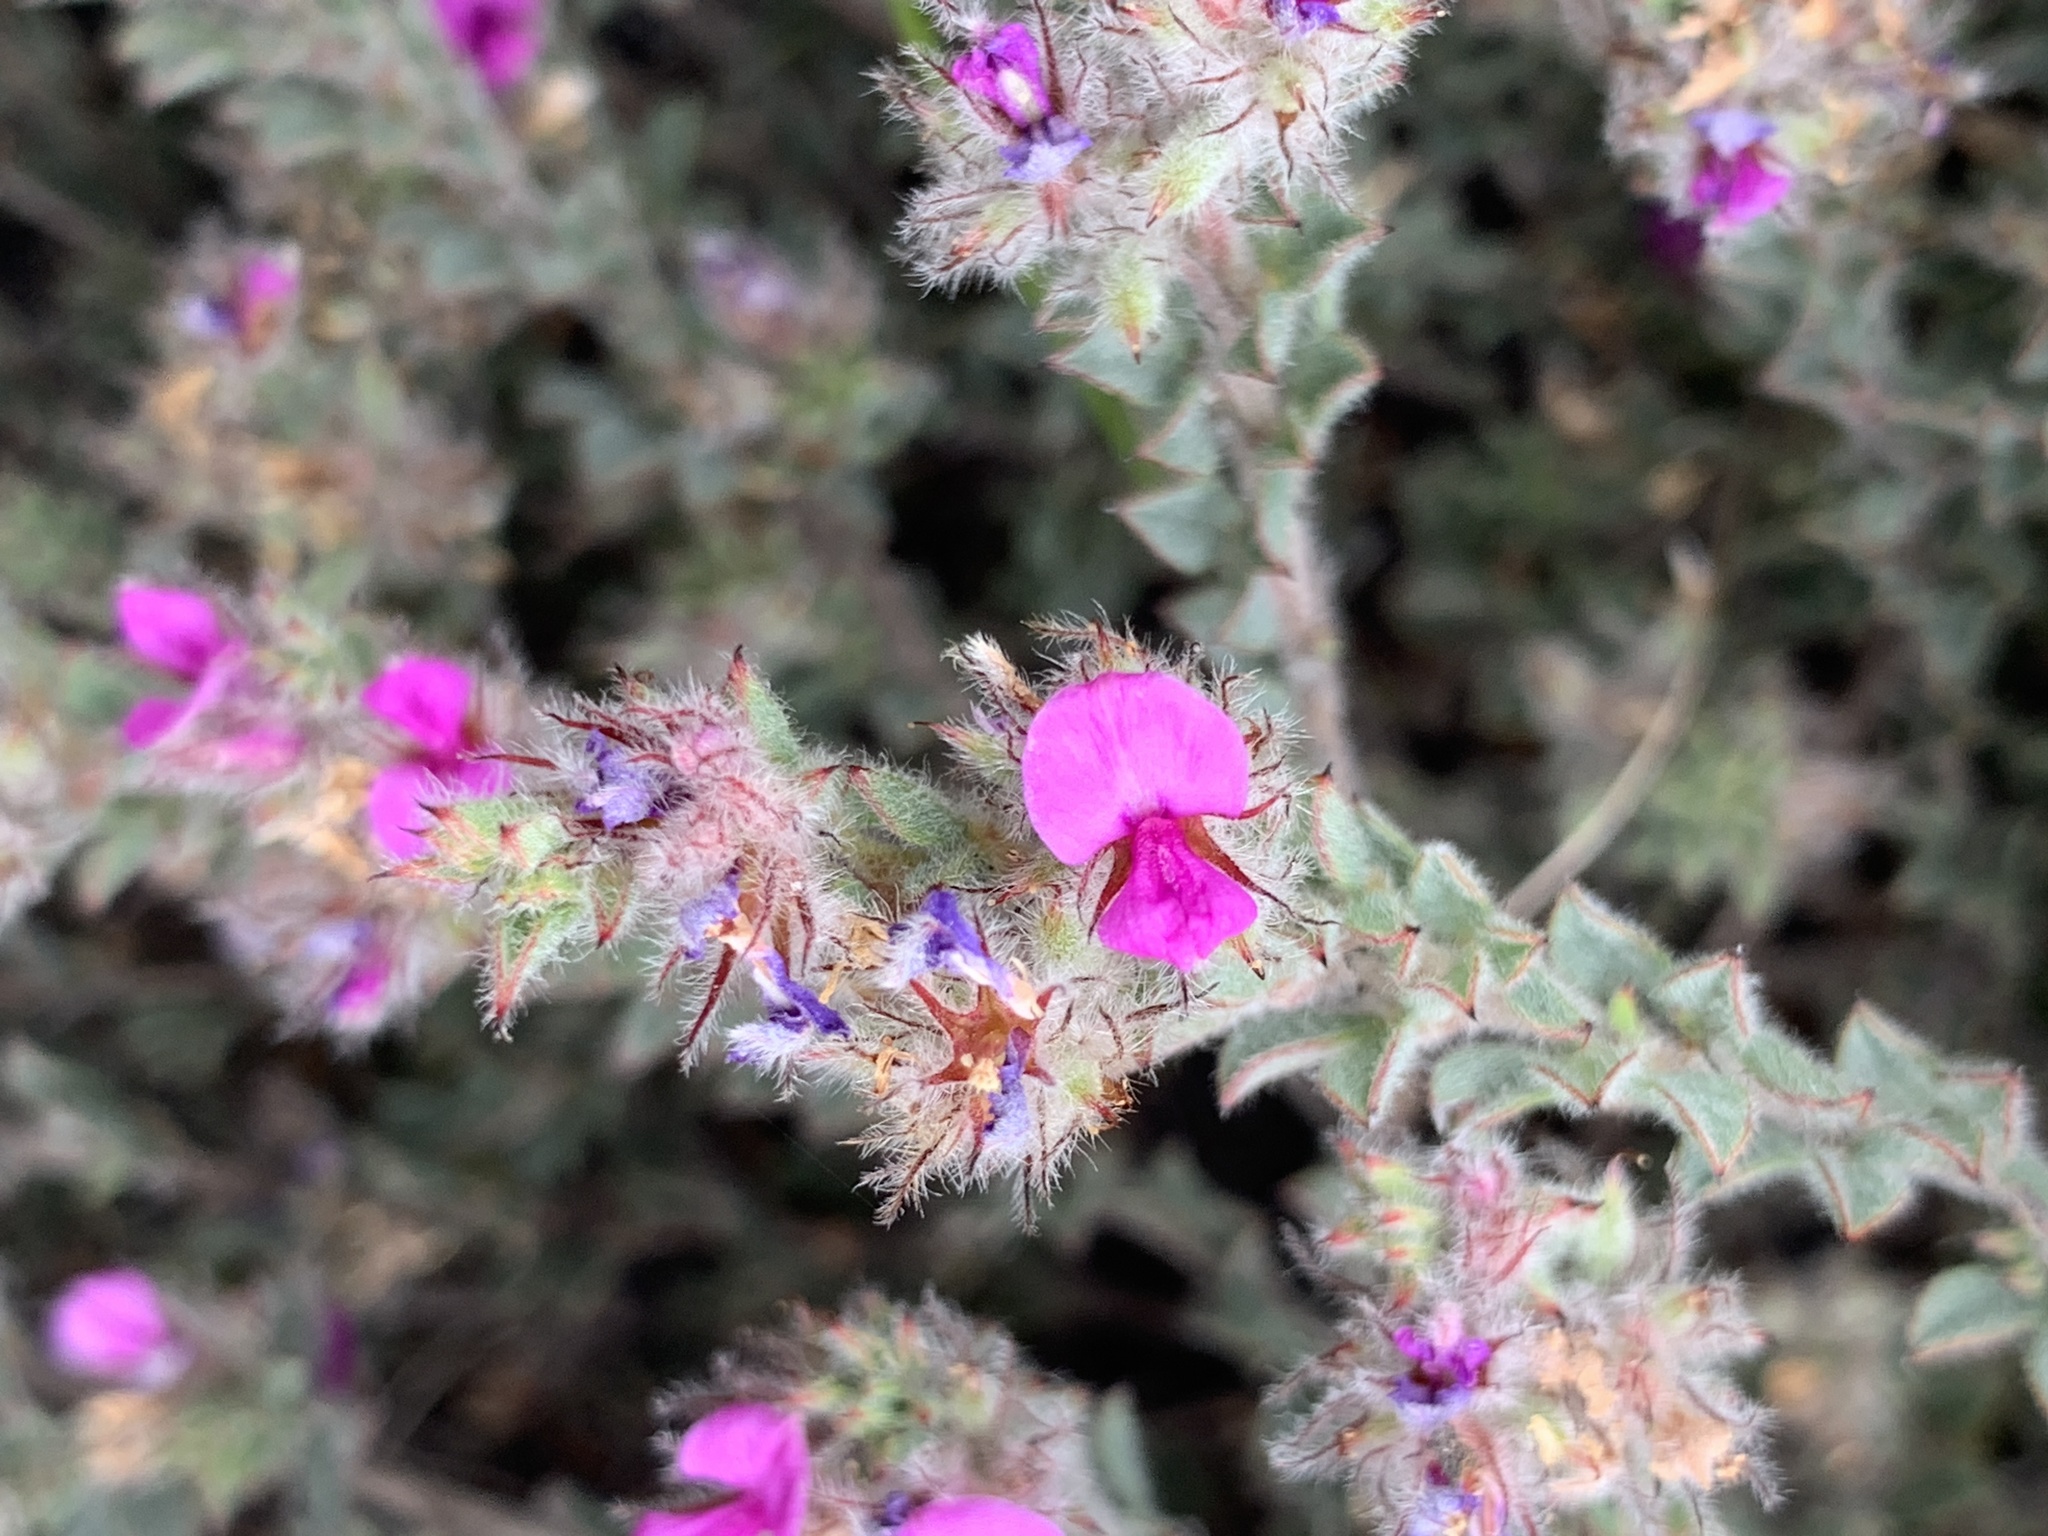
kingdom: Plantae
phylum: Tracheophyta
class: Magnoliopsida
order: Fabales
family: Fabaceae
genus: Indigofera
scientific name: Indigofera glomerata
